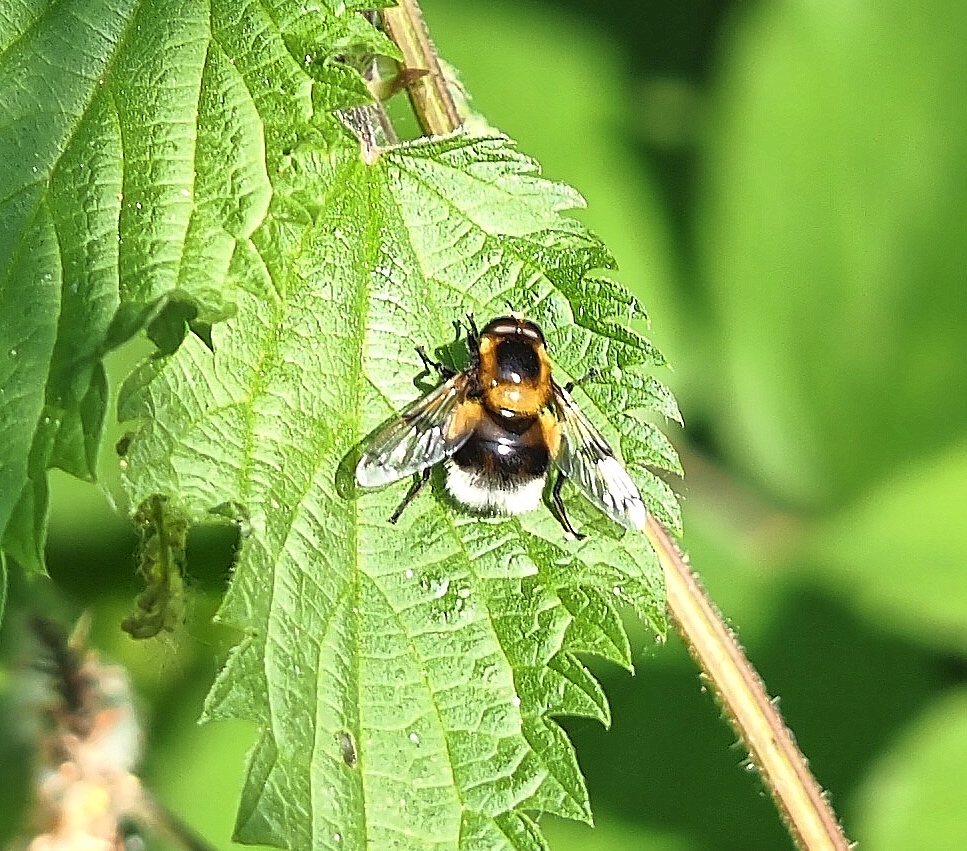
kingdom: Animalia
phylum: Arthropoda
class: Insecta
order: Diptera
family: Syrphidae
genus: Volucella
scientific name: Volucella bombylans
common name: Bumble bee hover fly
